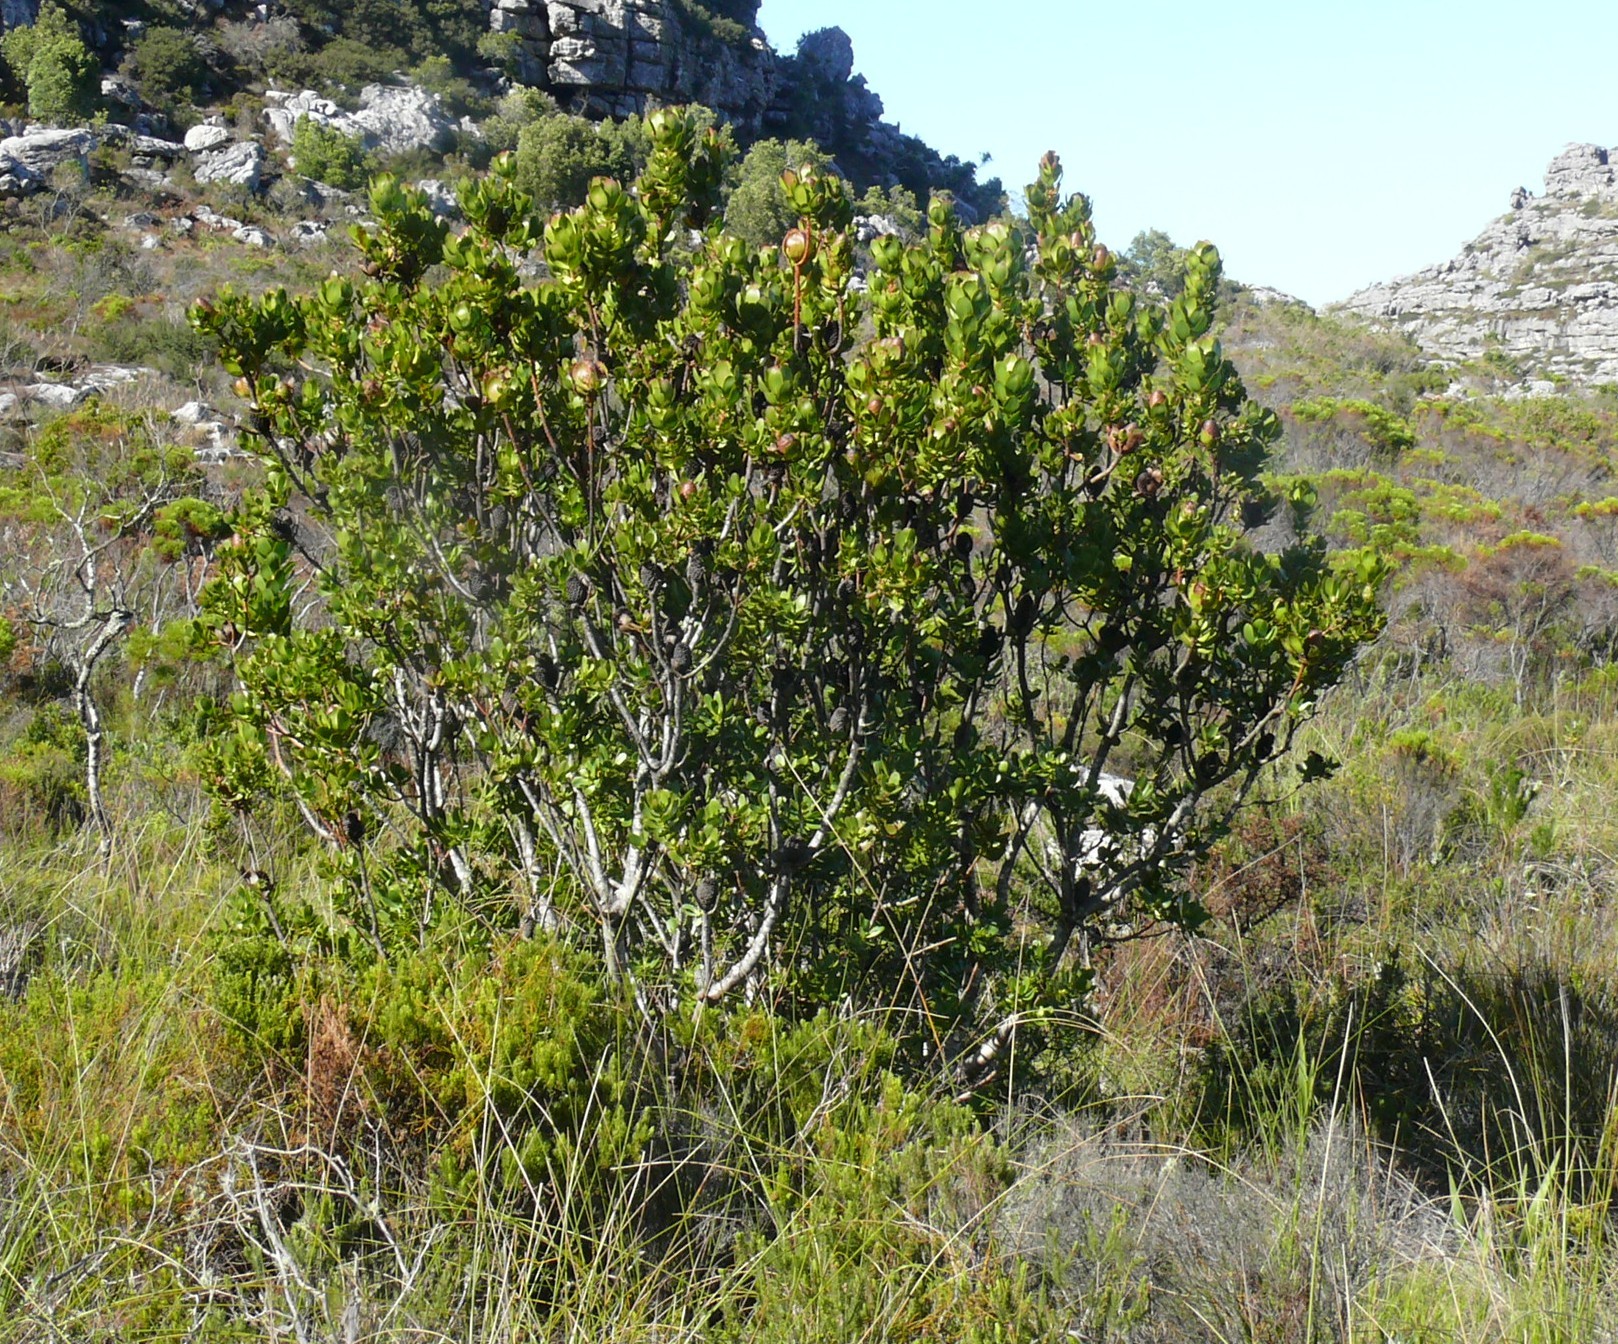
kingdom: Plantae
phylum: Tracheophyta
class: Magnoliopsida
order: Proteales
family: Proteaceae
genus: Leucadendron
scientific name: Leucadendron strobilinum
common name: Mountain rose
